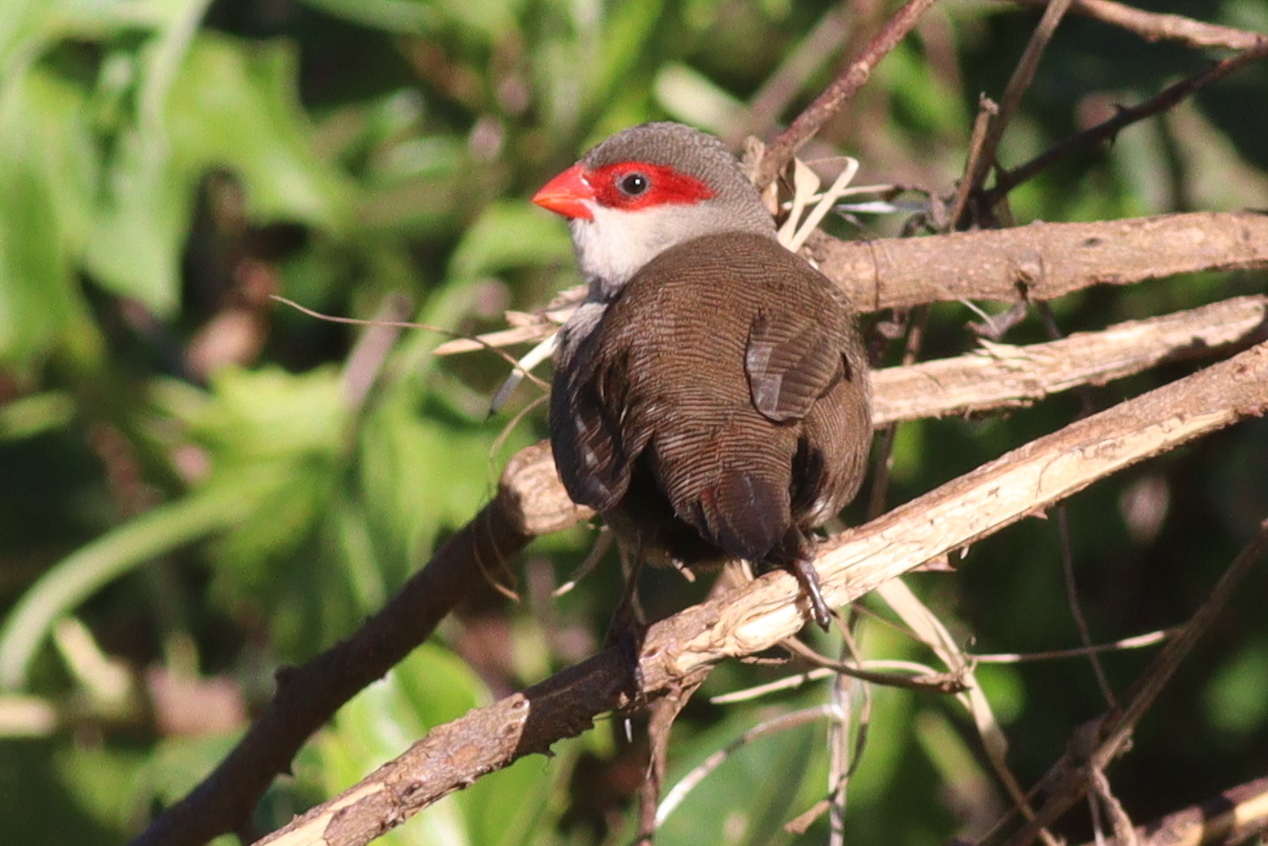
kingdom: Animalia
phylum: Chordata
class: Aves
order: Passeriformes
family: Estrildidae
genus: Estrilda
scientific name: Estrilda astrild
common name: Common waxbill
